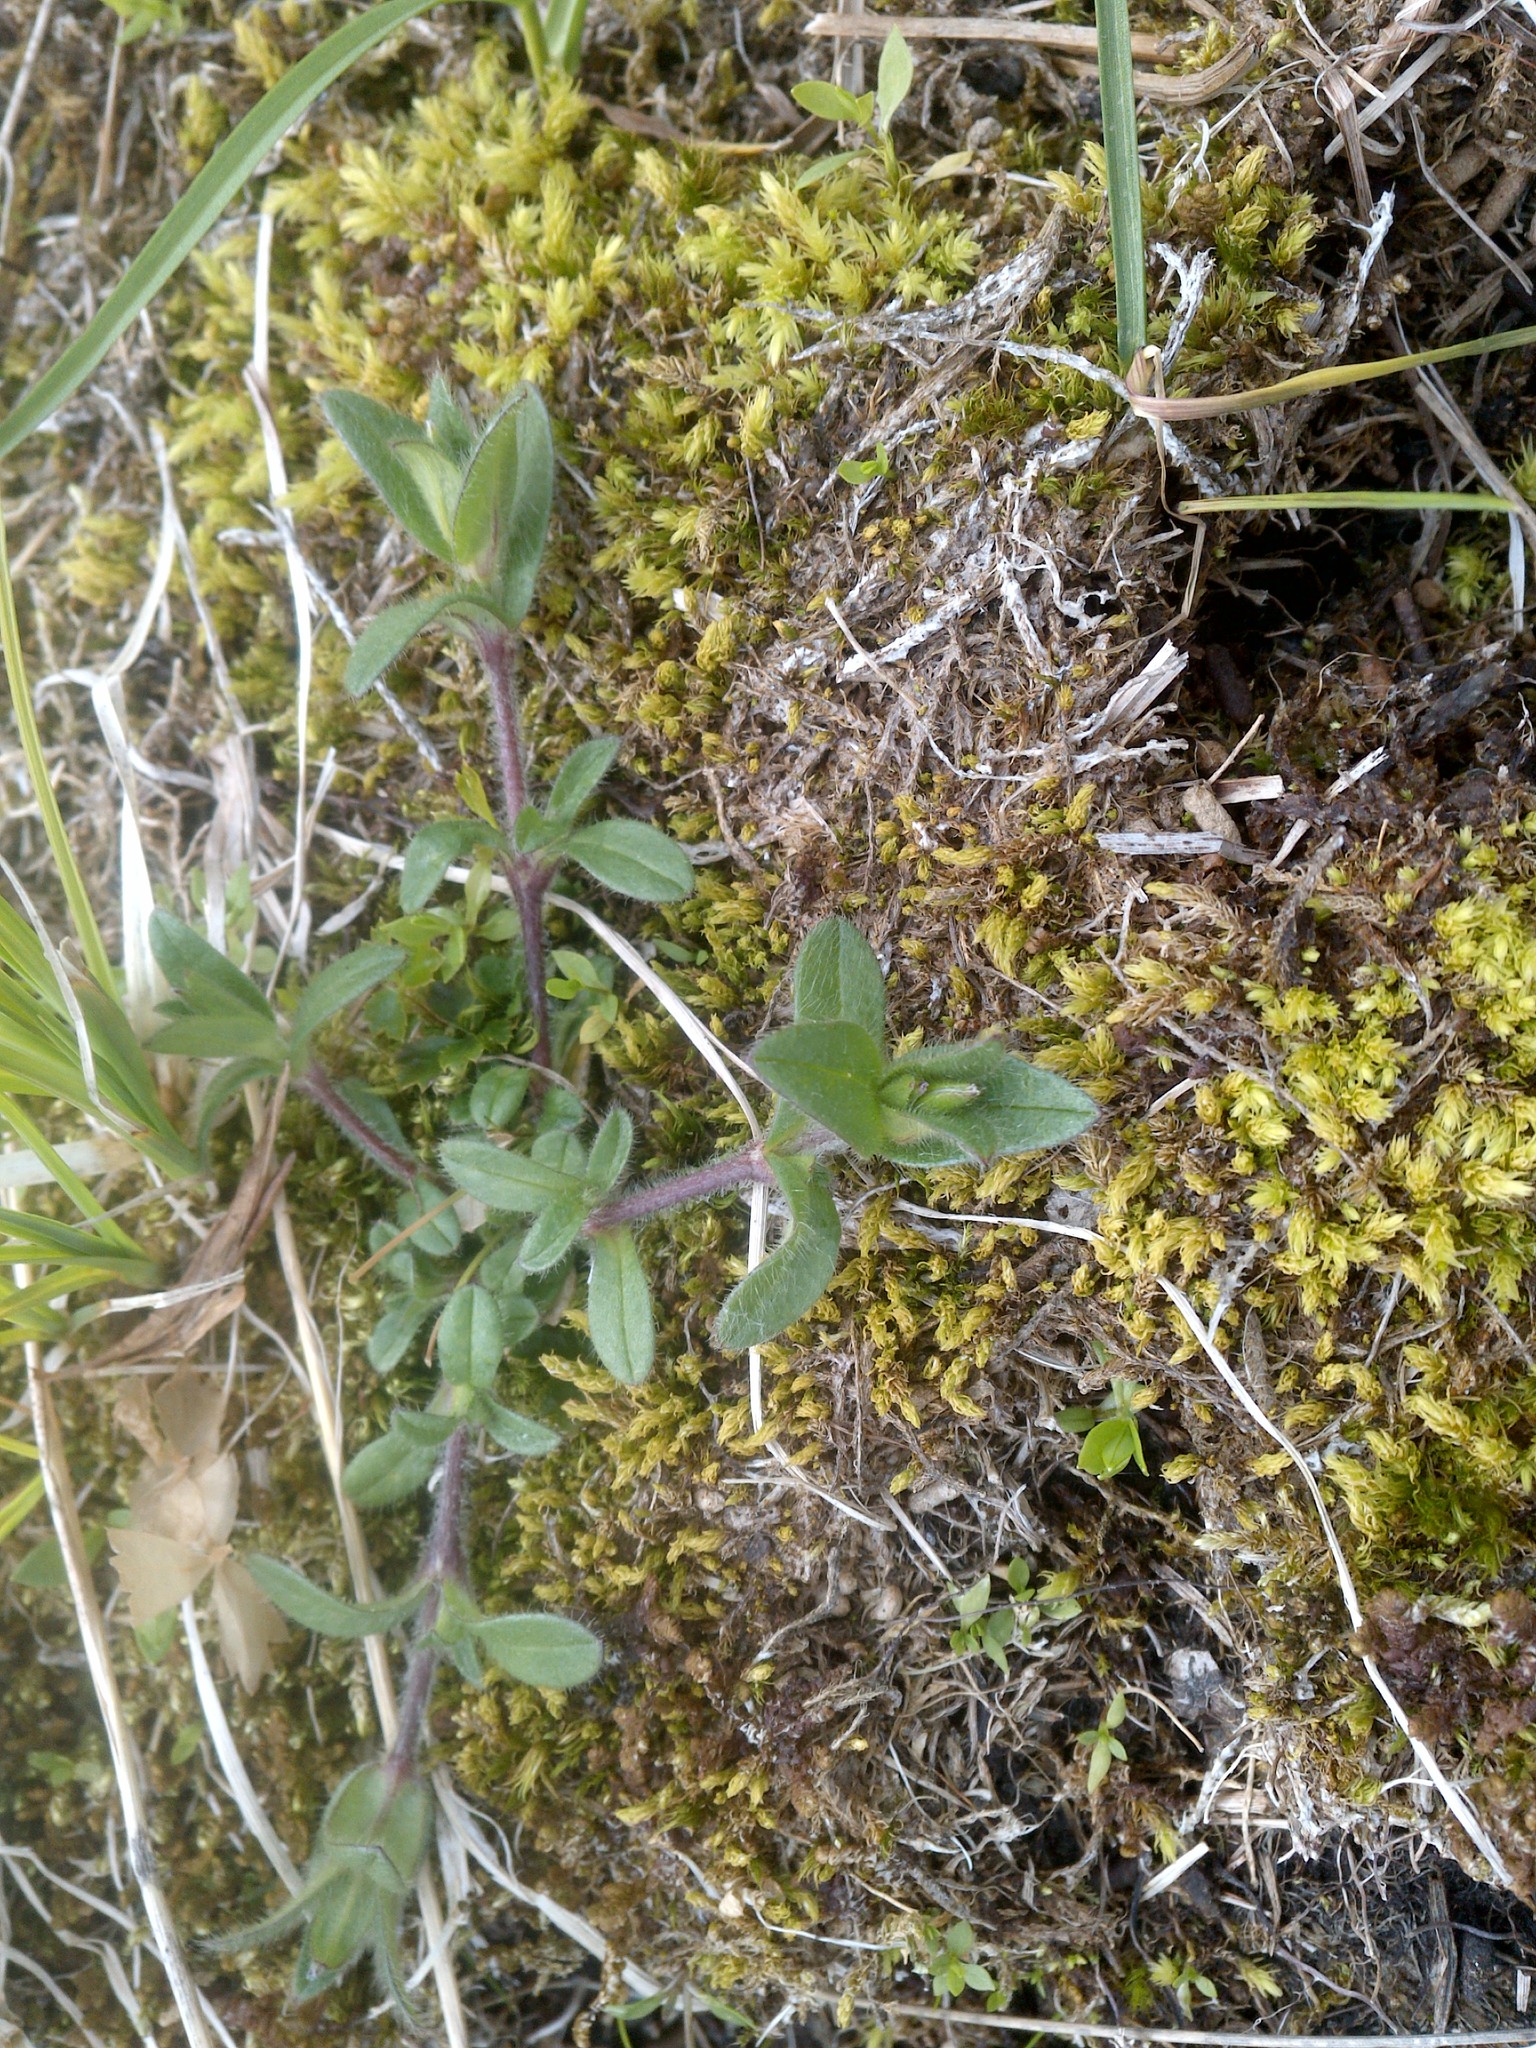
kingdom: Plantae
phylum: Tracheophyta
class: Magnoliopsida
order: Caryophyllales
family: Caryophyllaceae
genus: Cerastium
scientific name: Cerastium fontanum
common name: Common mouse-ear
